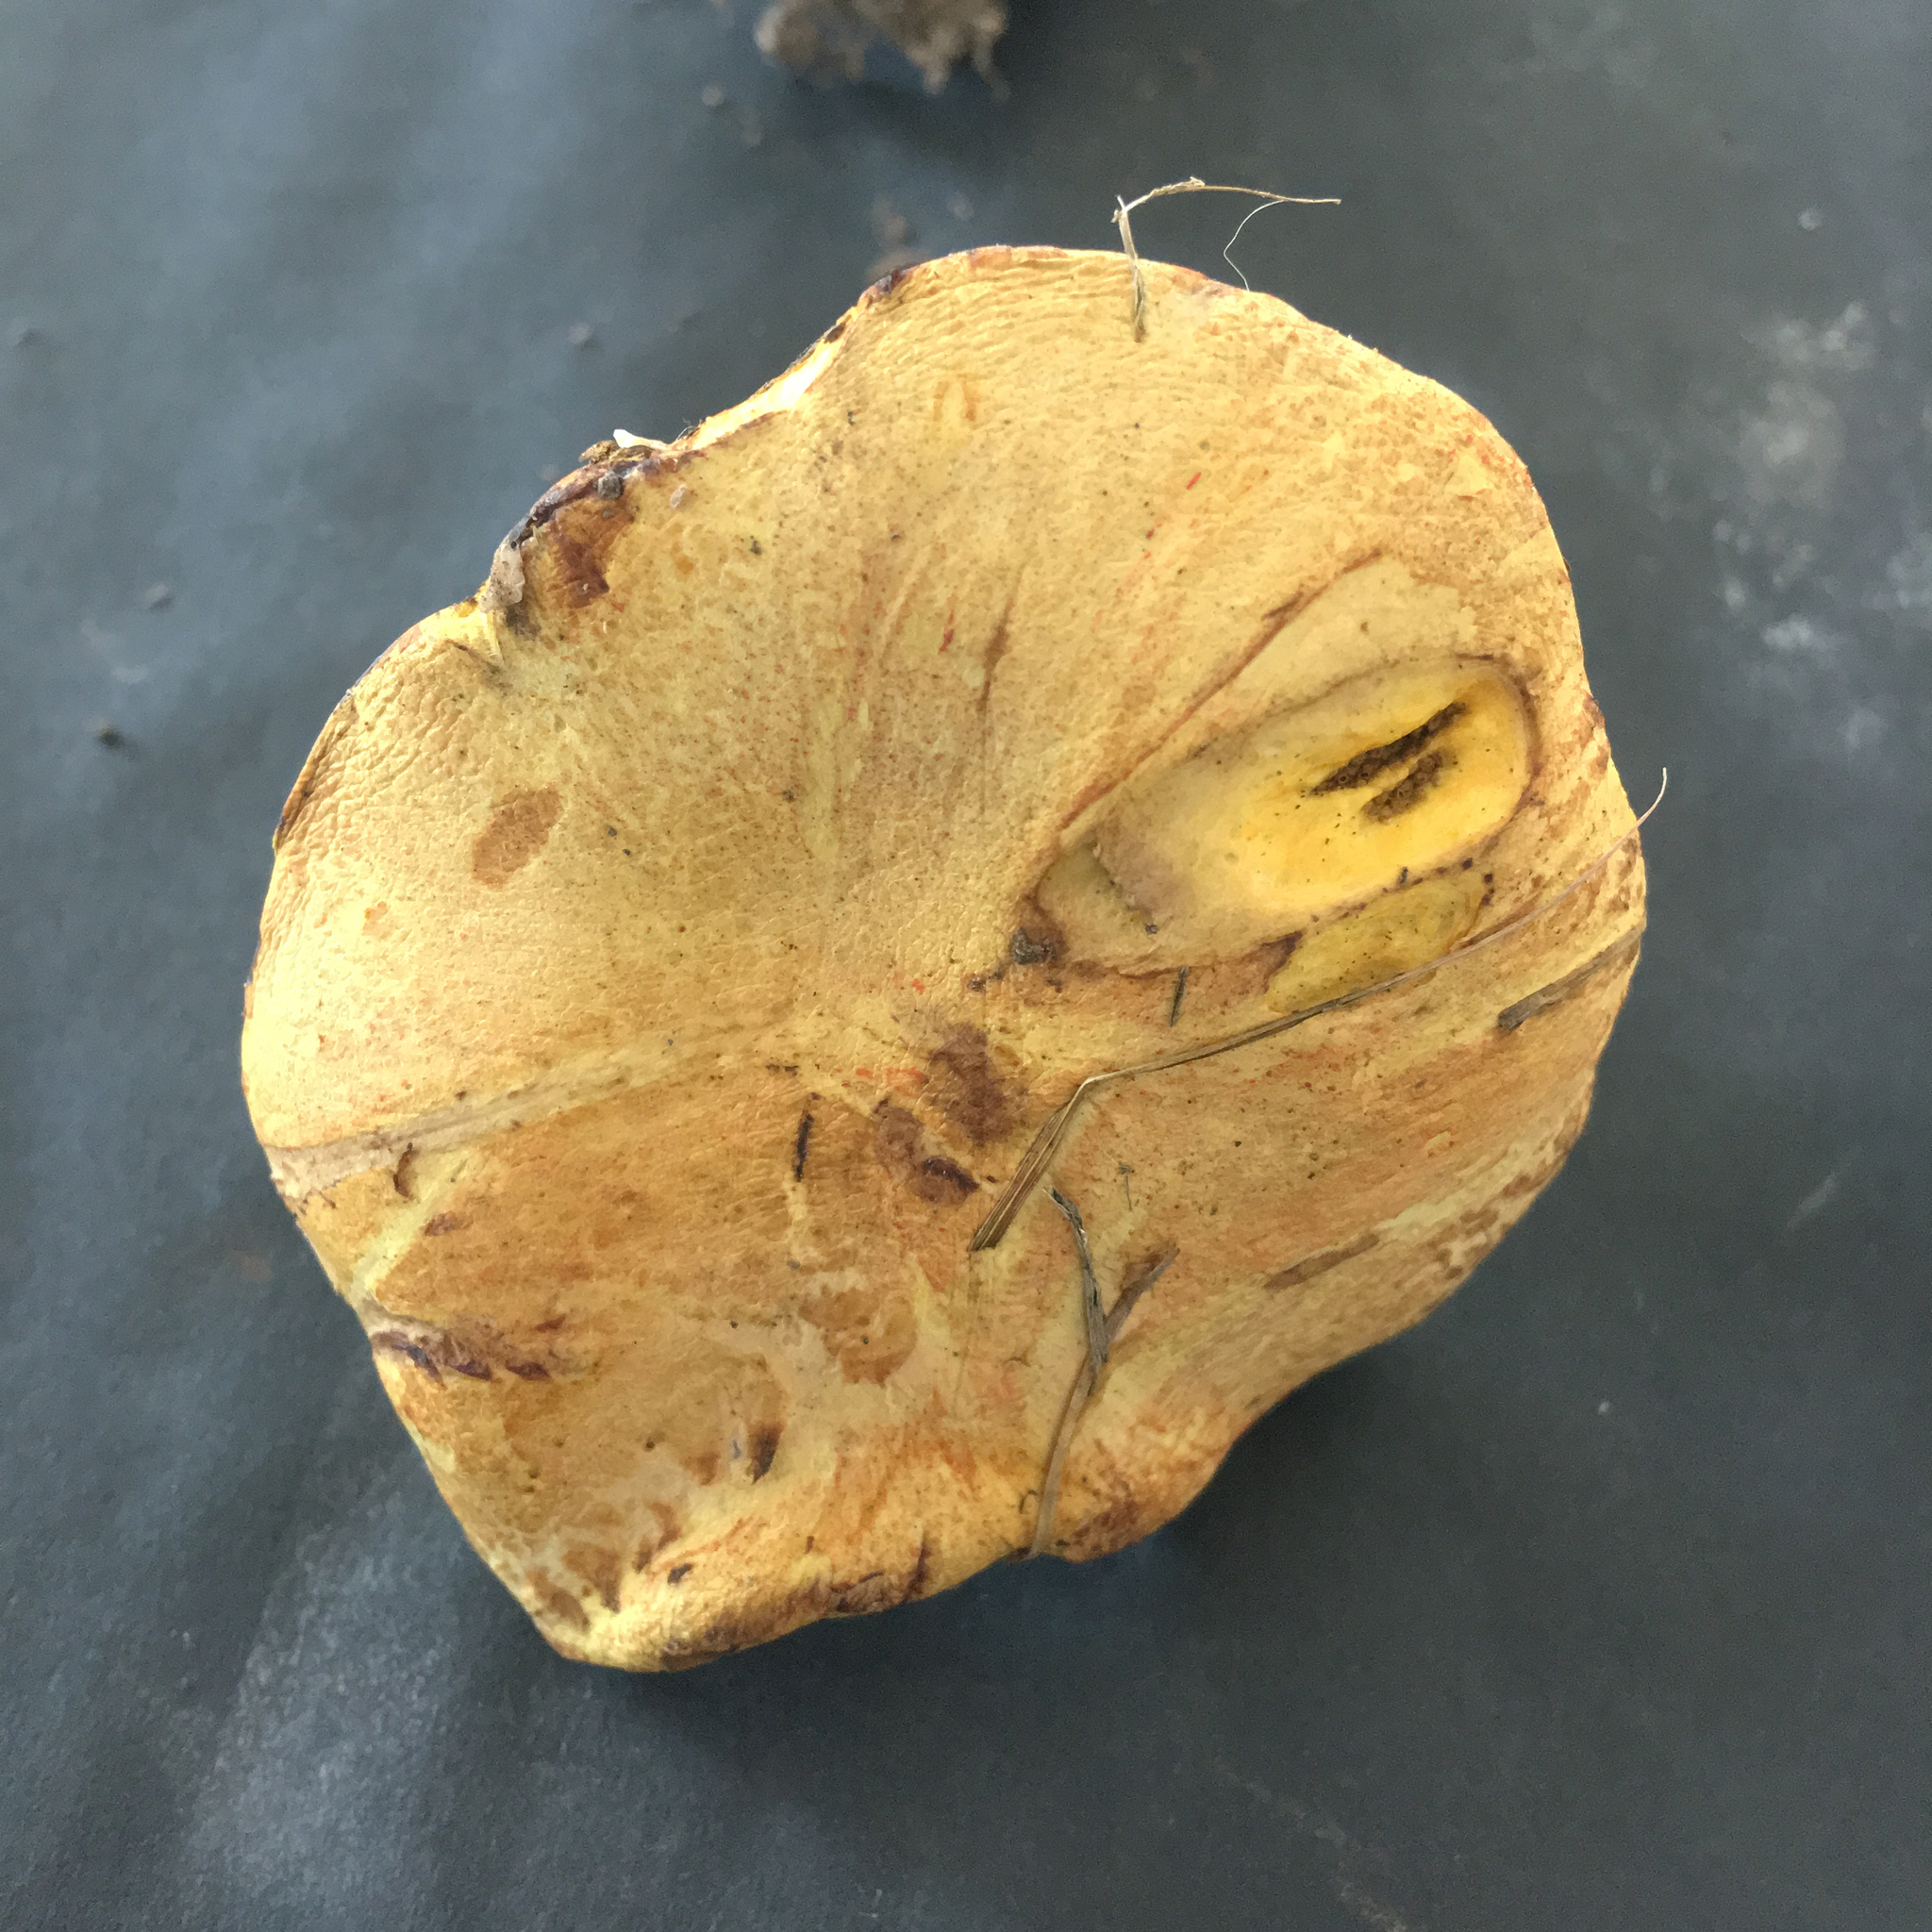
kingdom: Fungi
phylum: Basidiomycota
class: Agaricomycetes
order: Boletales
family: Suillaceae
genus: Suillus
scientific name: Suillus americanus
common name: Chicken fat mushroom
